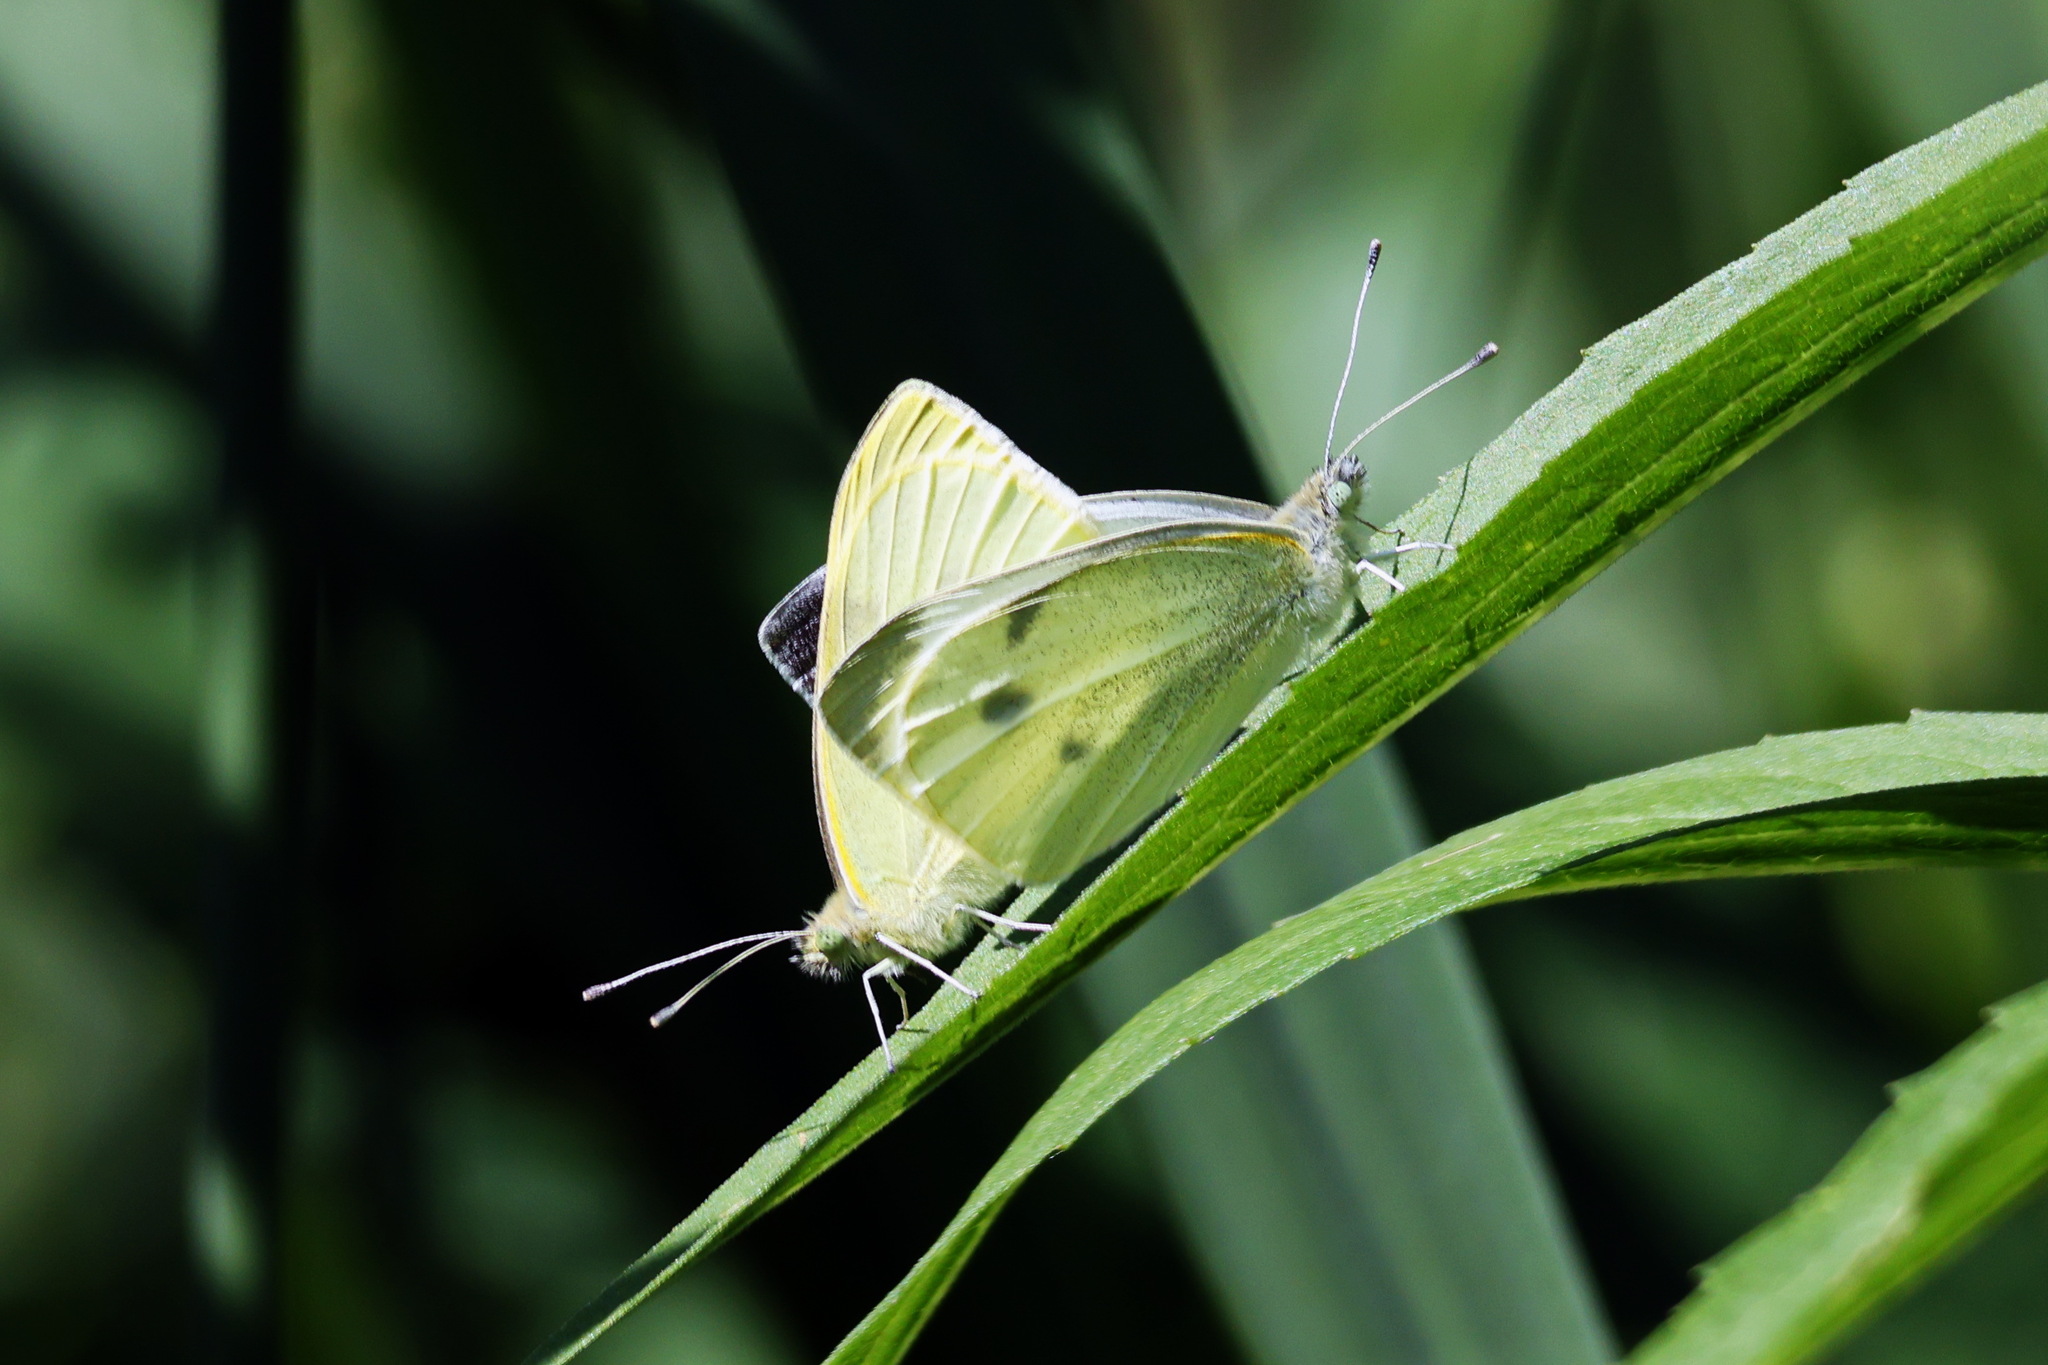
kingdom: Animalia
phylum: Arthropoda
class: Insecta
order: Lepidoptera
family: Pieridae
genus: Pieris
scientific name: Pieris rapae
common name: Small white
